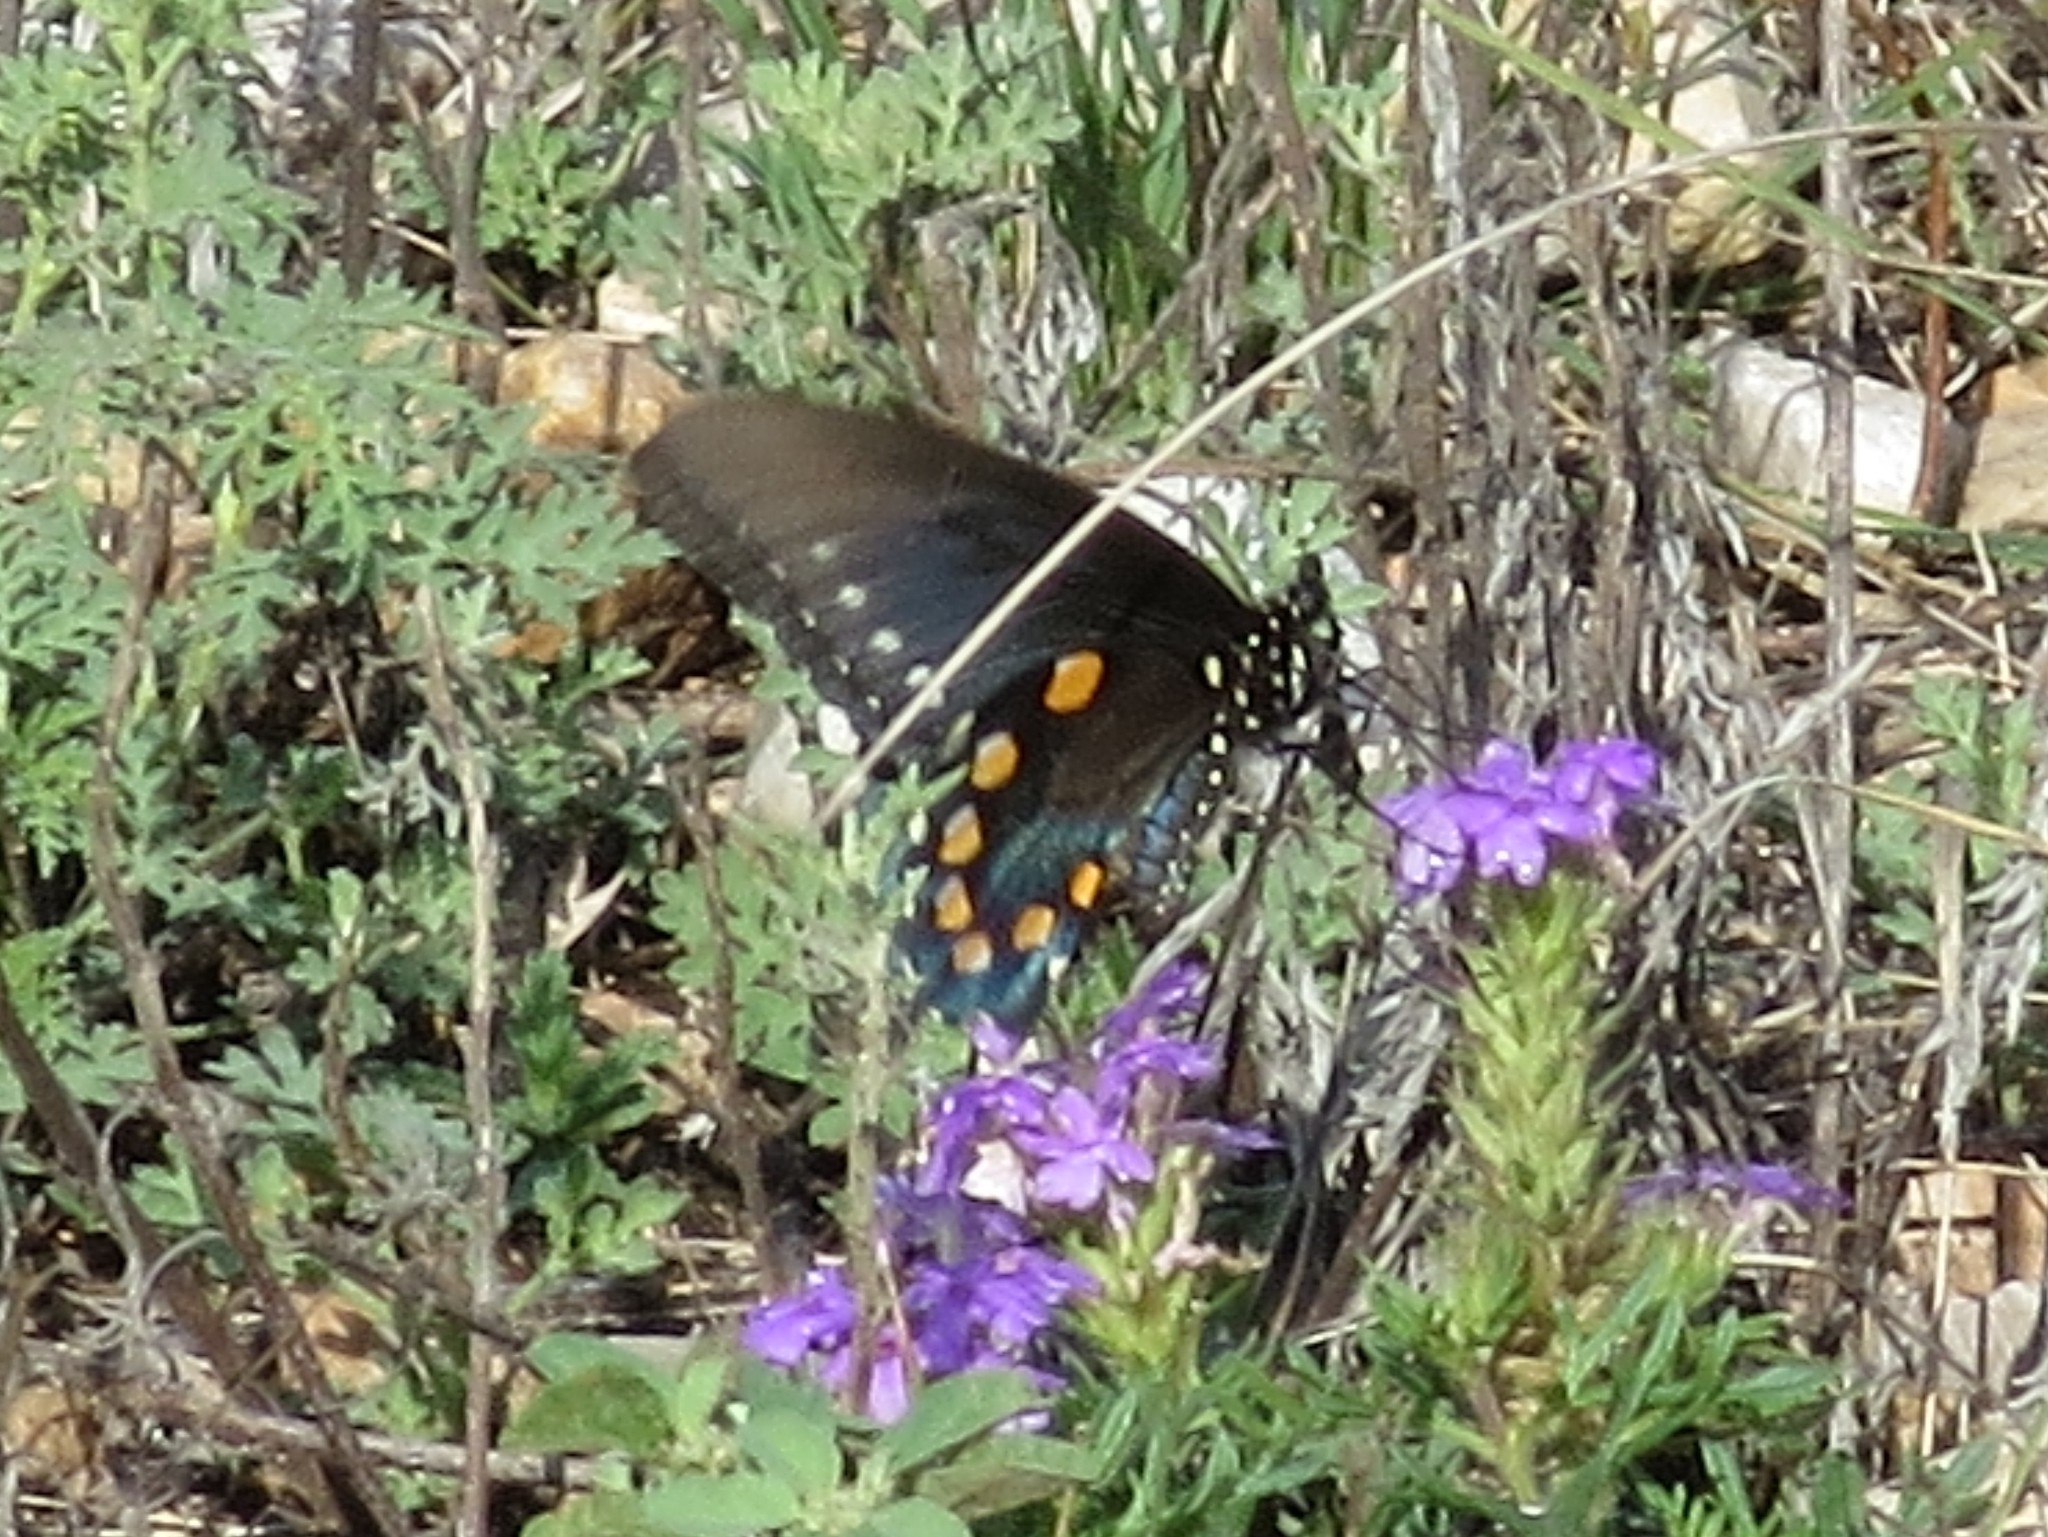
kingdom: Animalia
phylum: Arthropoda
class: Insecta
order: Lepidoptera
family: Papilionidae
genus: Battus
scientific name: Battus philenor
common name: Pipevine swallowtail
